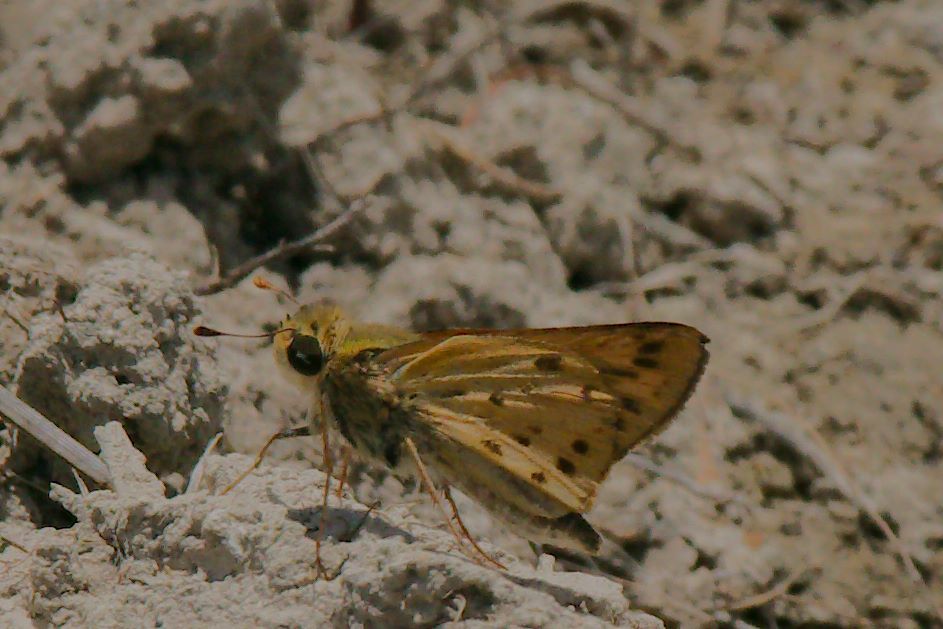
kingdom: Animalia
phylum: Arthropoda
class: Insecta
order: Lepidoptera
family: Hesperiidae
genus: Hylephila
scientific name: Hylephila phyleus
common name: Fiery skipper
